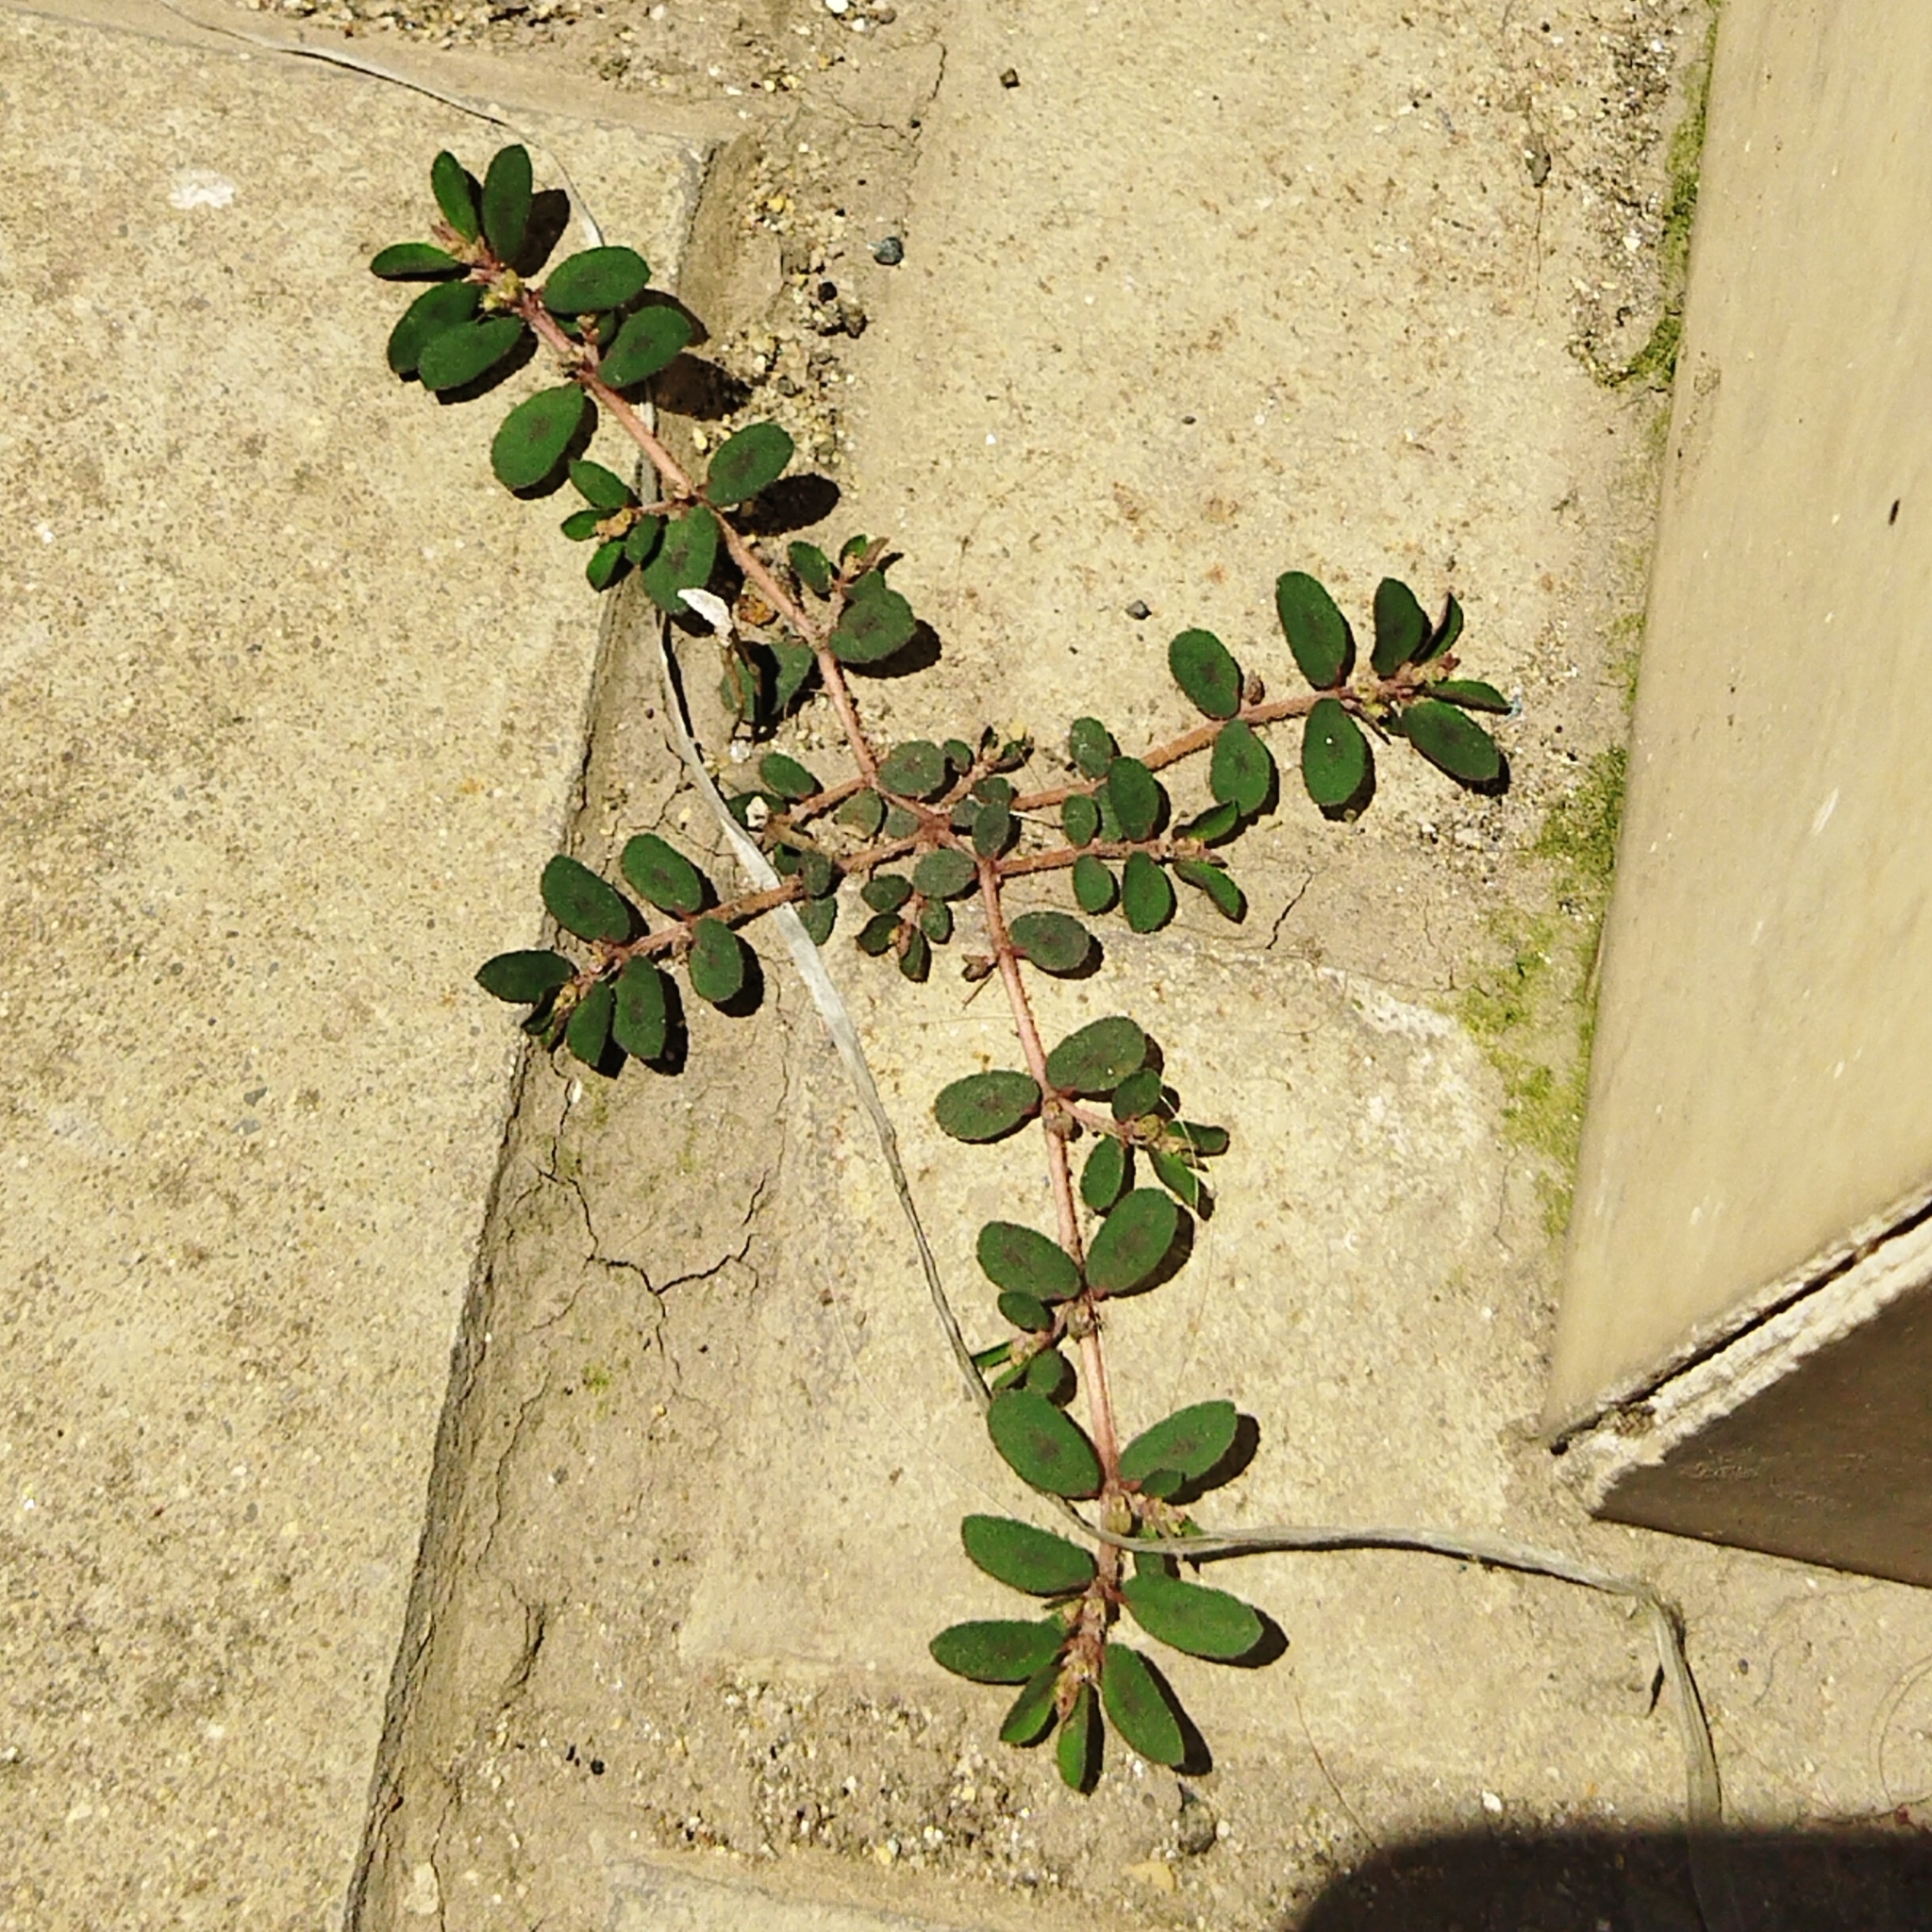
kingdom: Plantae
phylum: Tracheophyta
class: Magnoliopsida
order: Malpighiales
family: Euphorbiaceae
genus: Euphorbia
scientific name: Euphorbia maculata
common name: Spotted spurge
